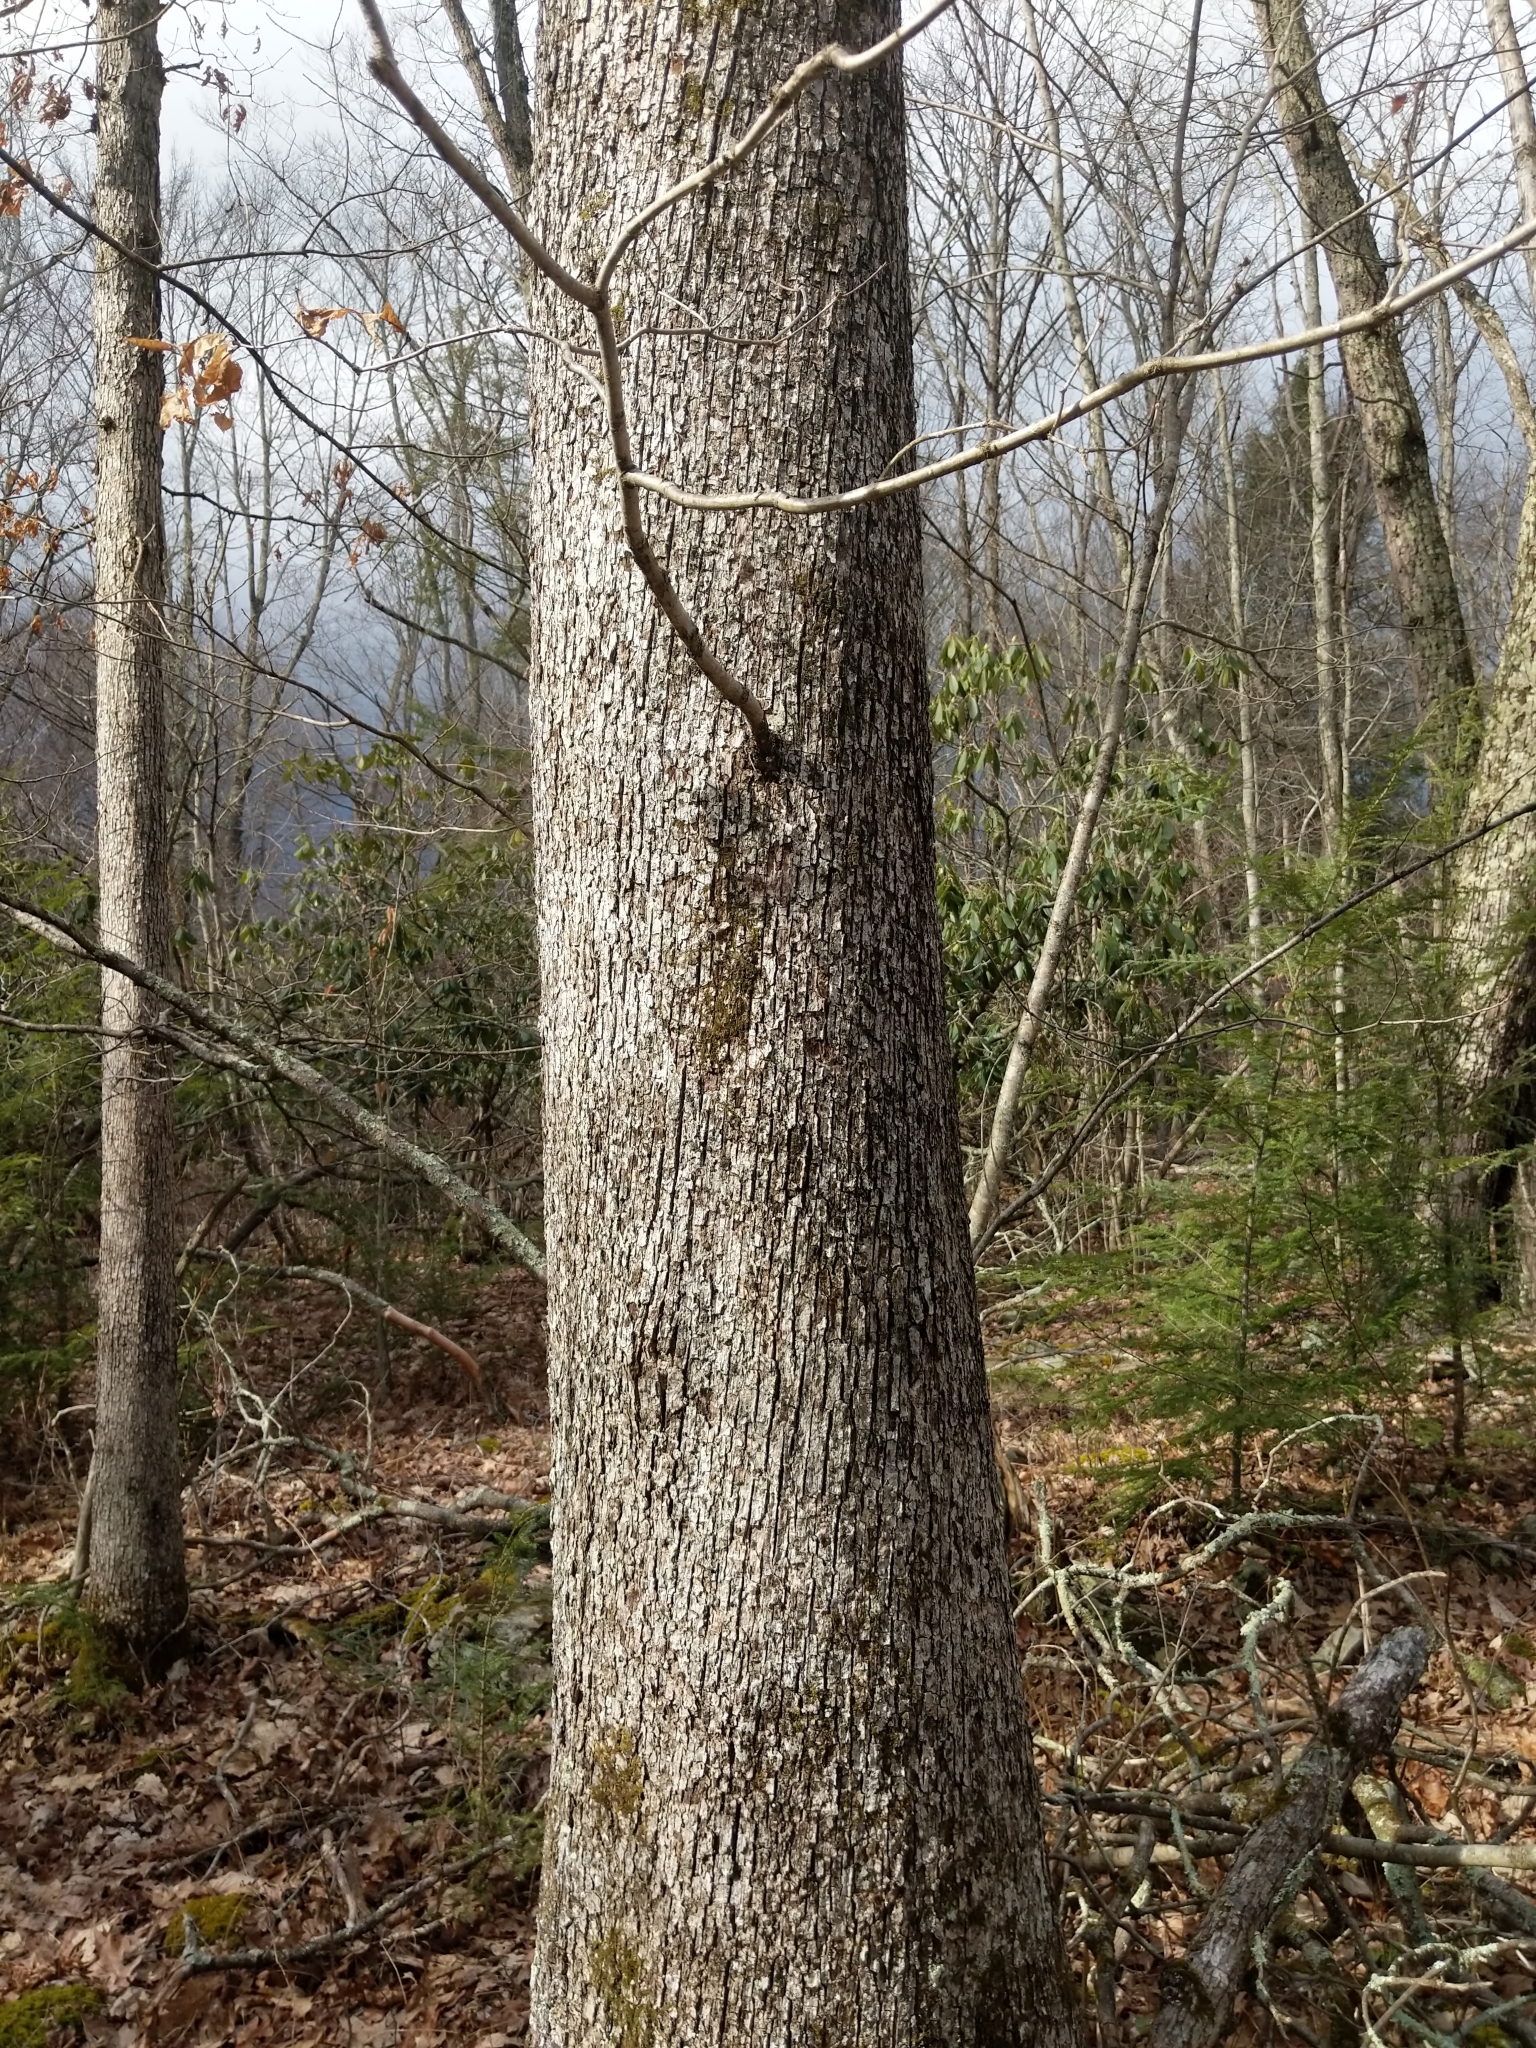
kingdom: Plantae
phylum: Tracheophyta
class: Magnoliopsida
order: Fagales
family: Fagaceae
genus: Quercus
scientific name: Quercus alba
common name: White oak
